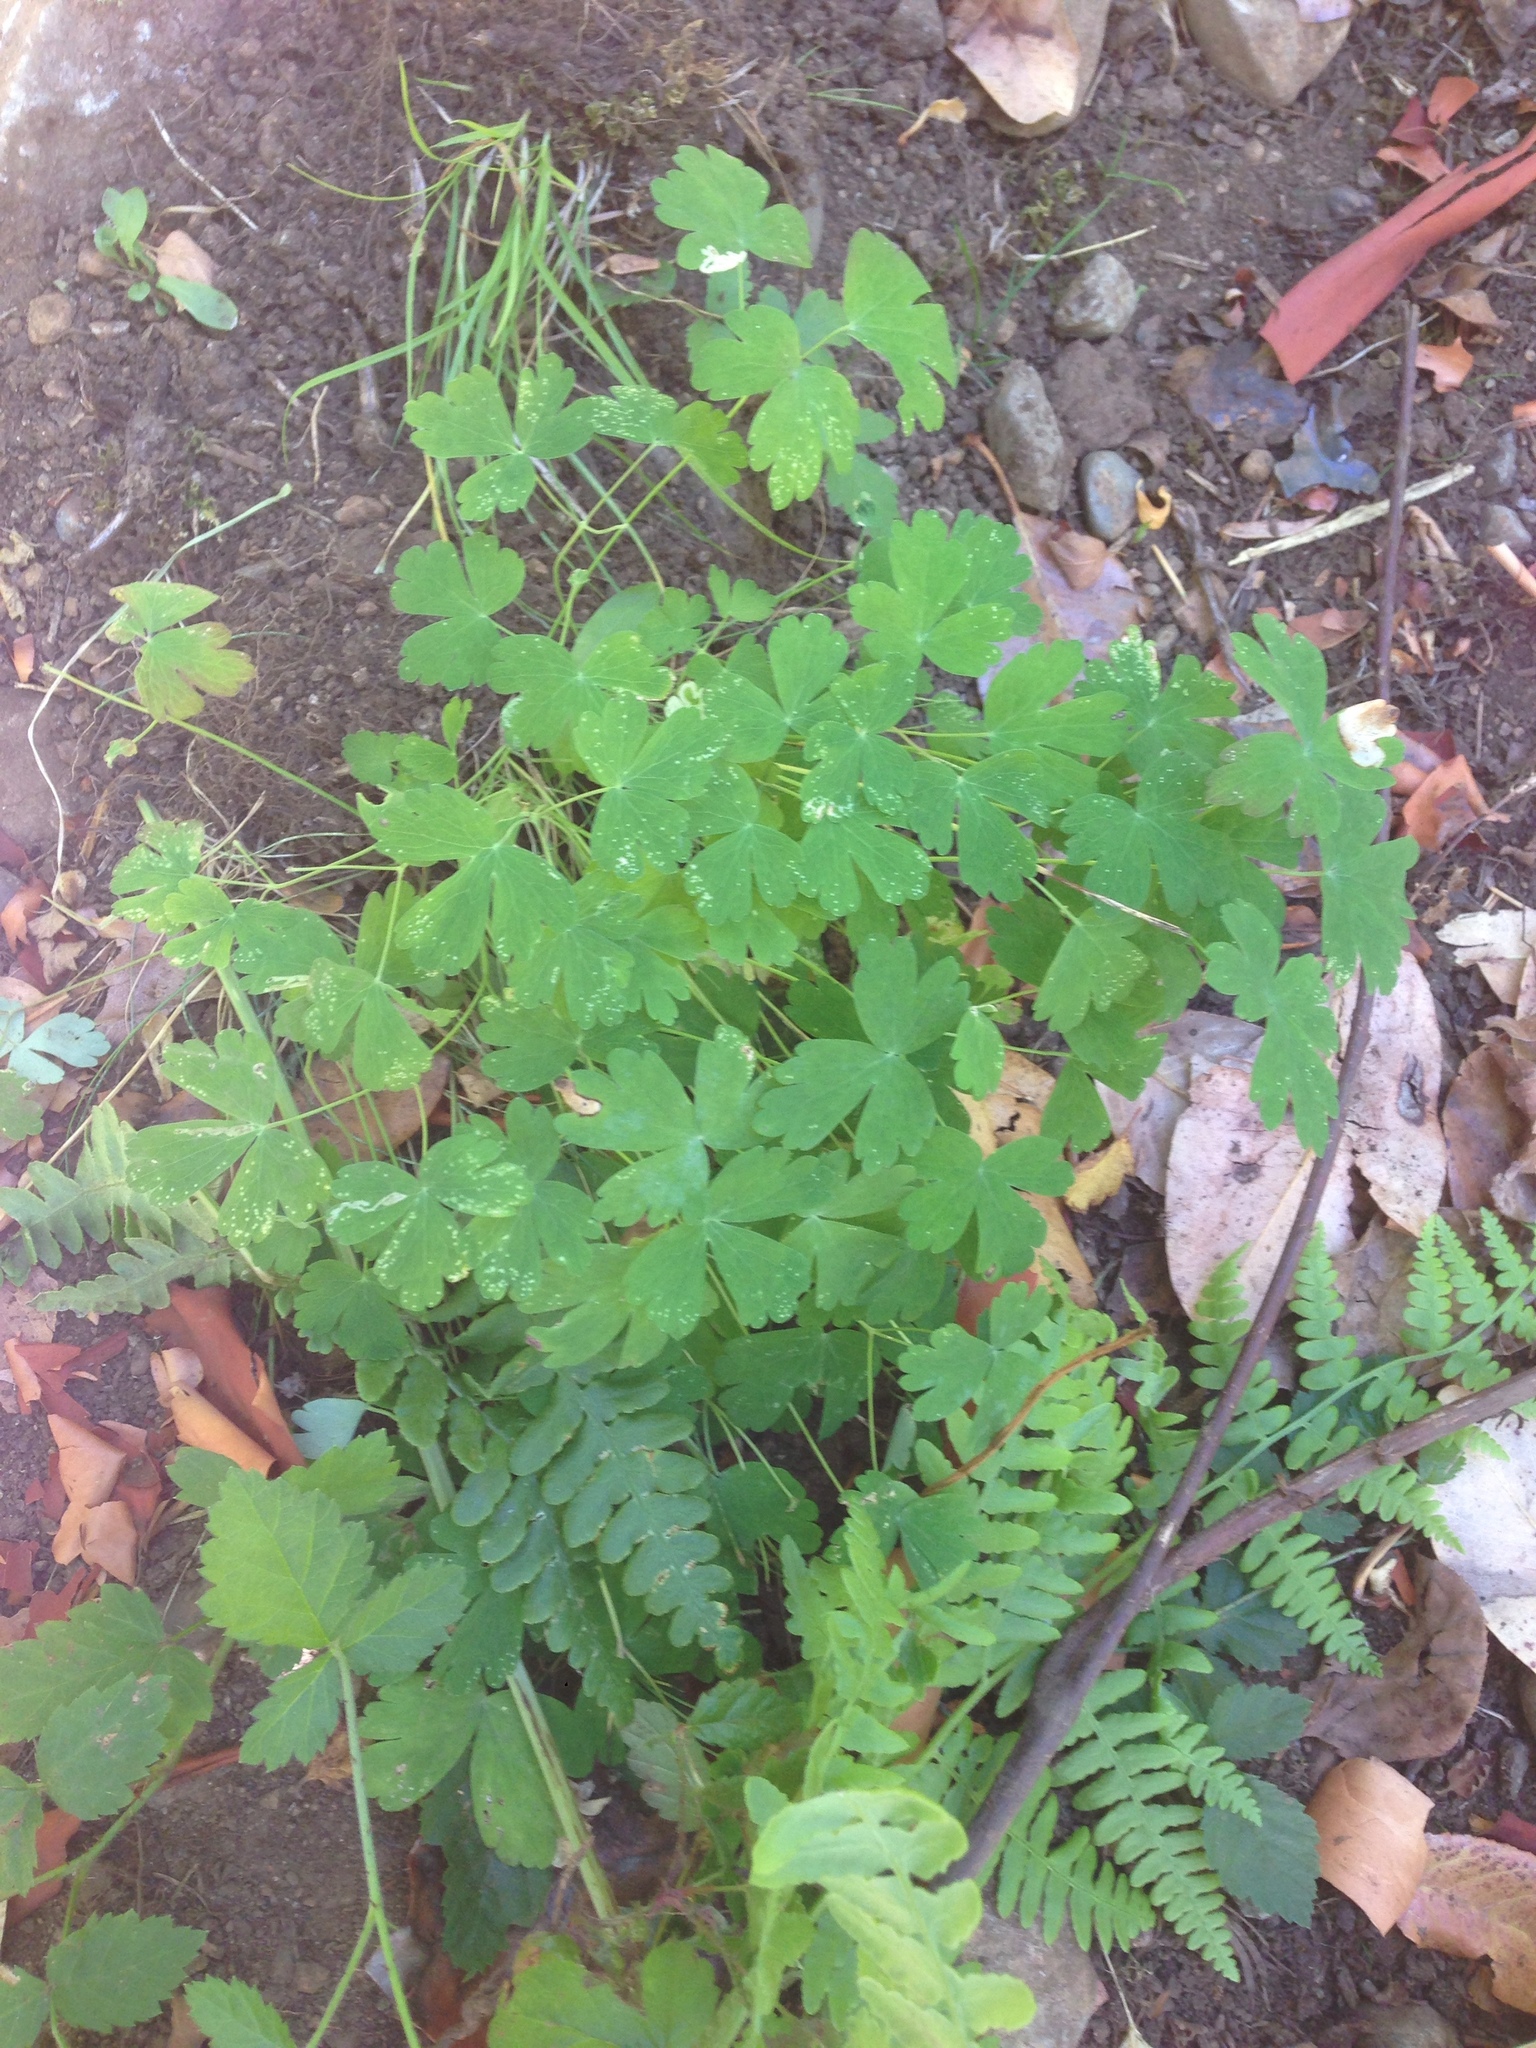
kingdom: Plantae
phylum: Tracheophyta
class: Magnoliopsida
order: Ranunculales
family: Ranunculaceae
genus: Aquilegia
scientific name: Aquilegia formosa
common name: Sitka columbine
